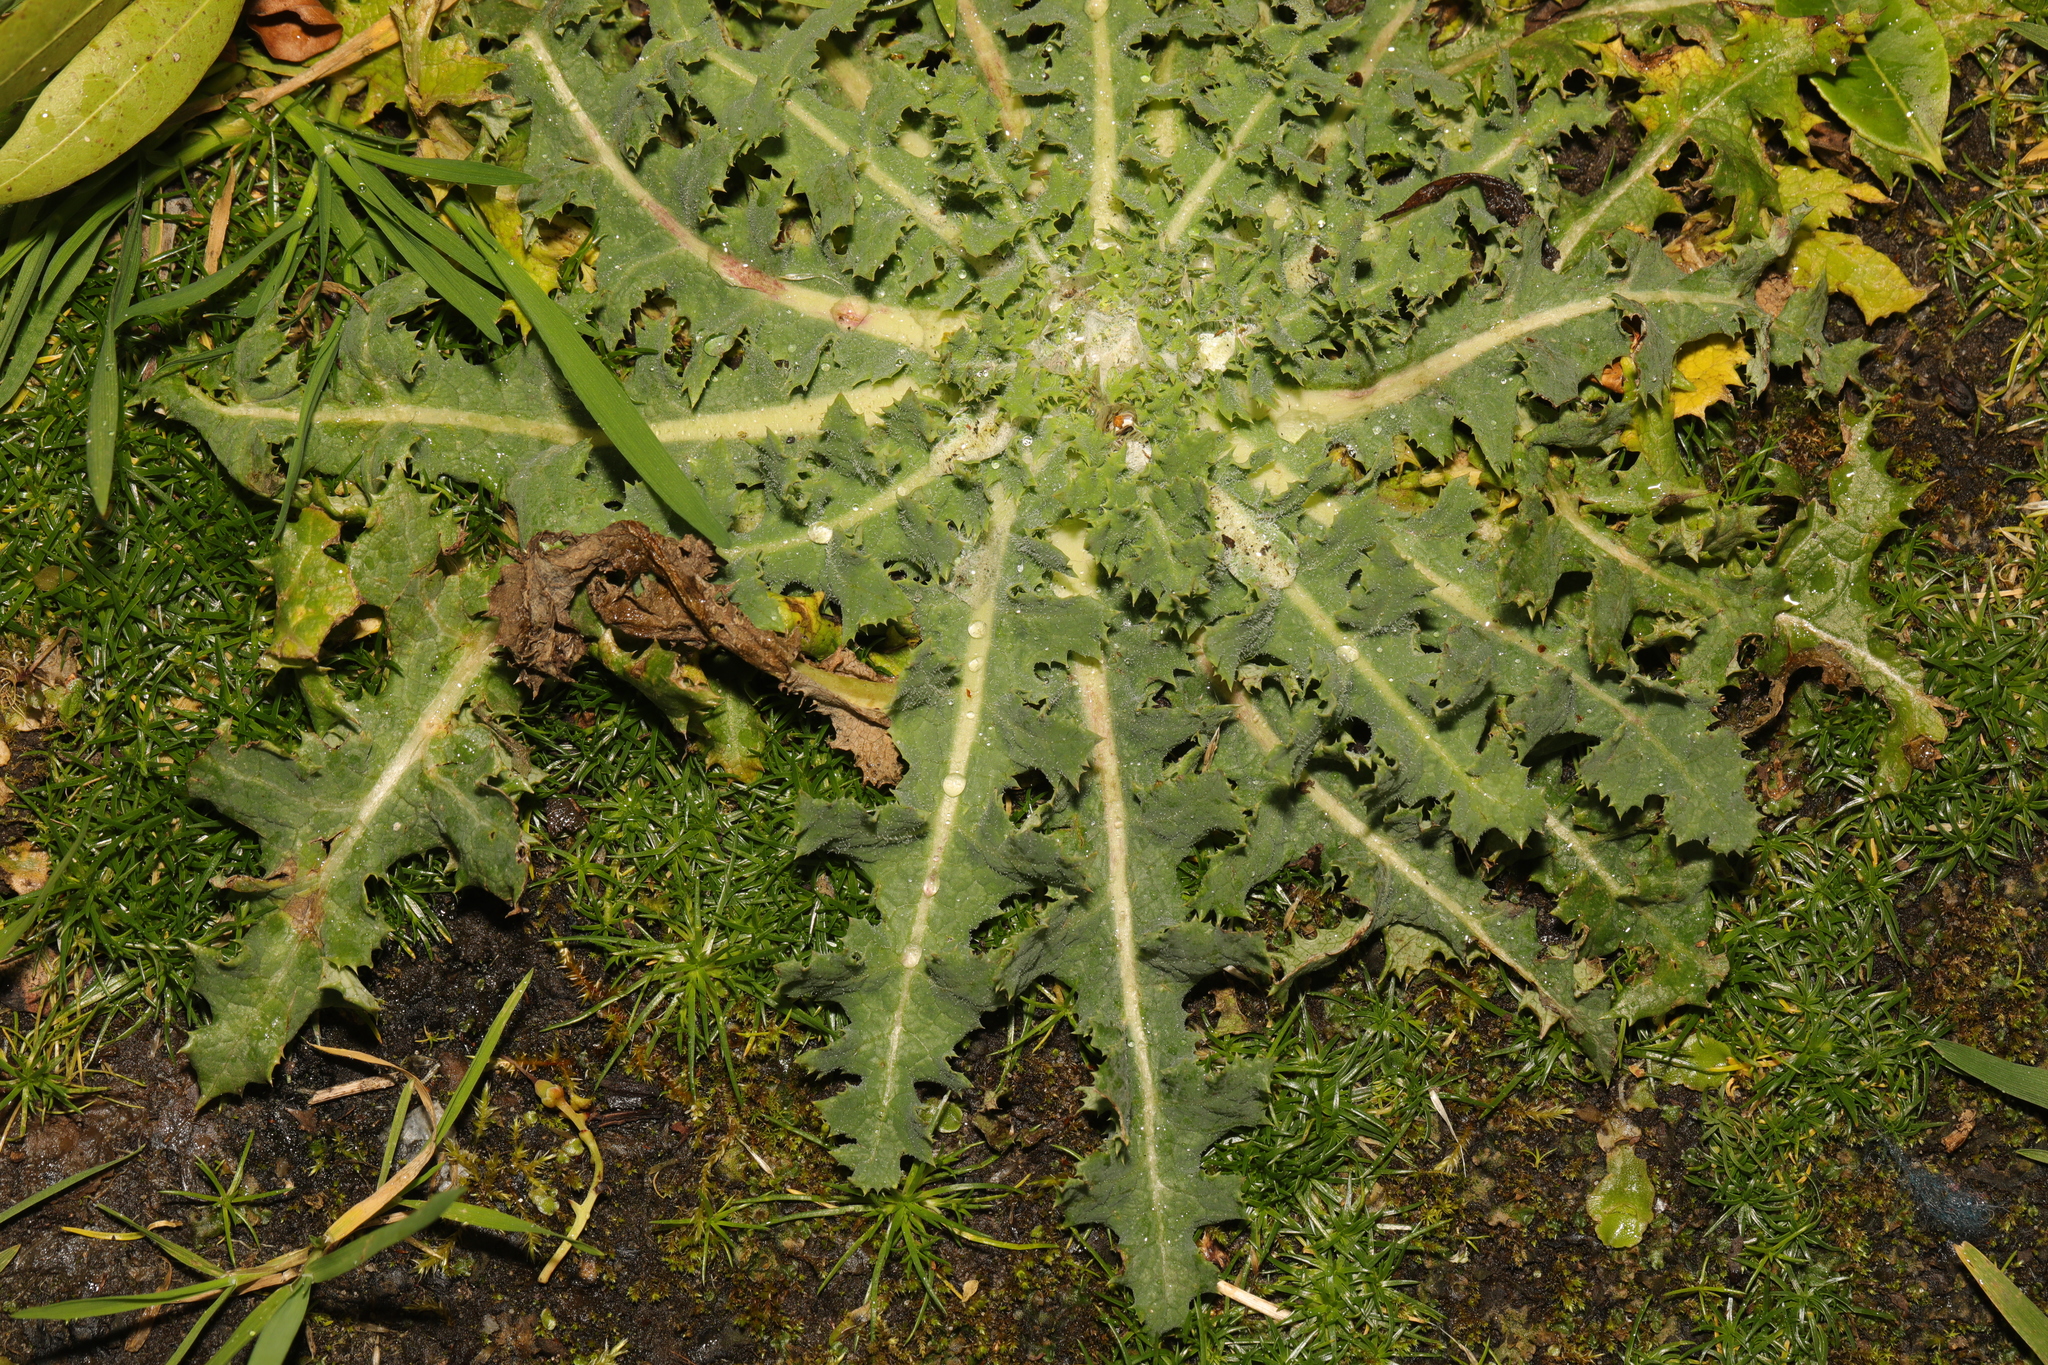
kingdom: Plantae
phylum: Tracheophyta
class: Magnoliopsida
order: Asterales
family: Asteraceae
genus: Sonchus
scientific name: Sonchus asper
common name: Prickly sow-thistle
